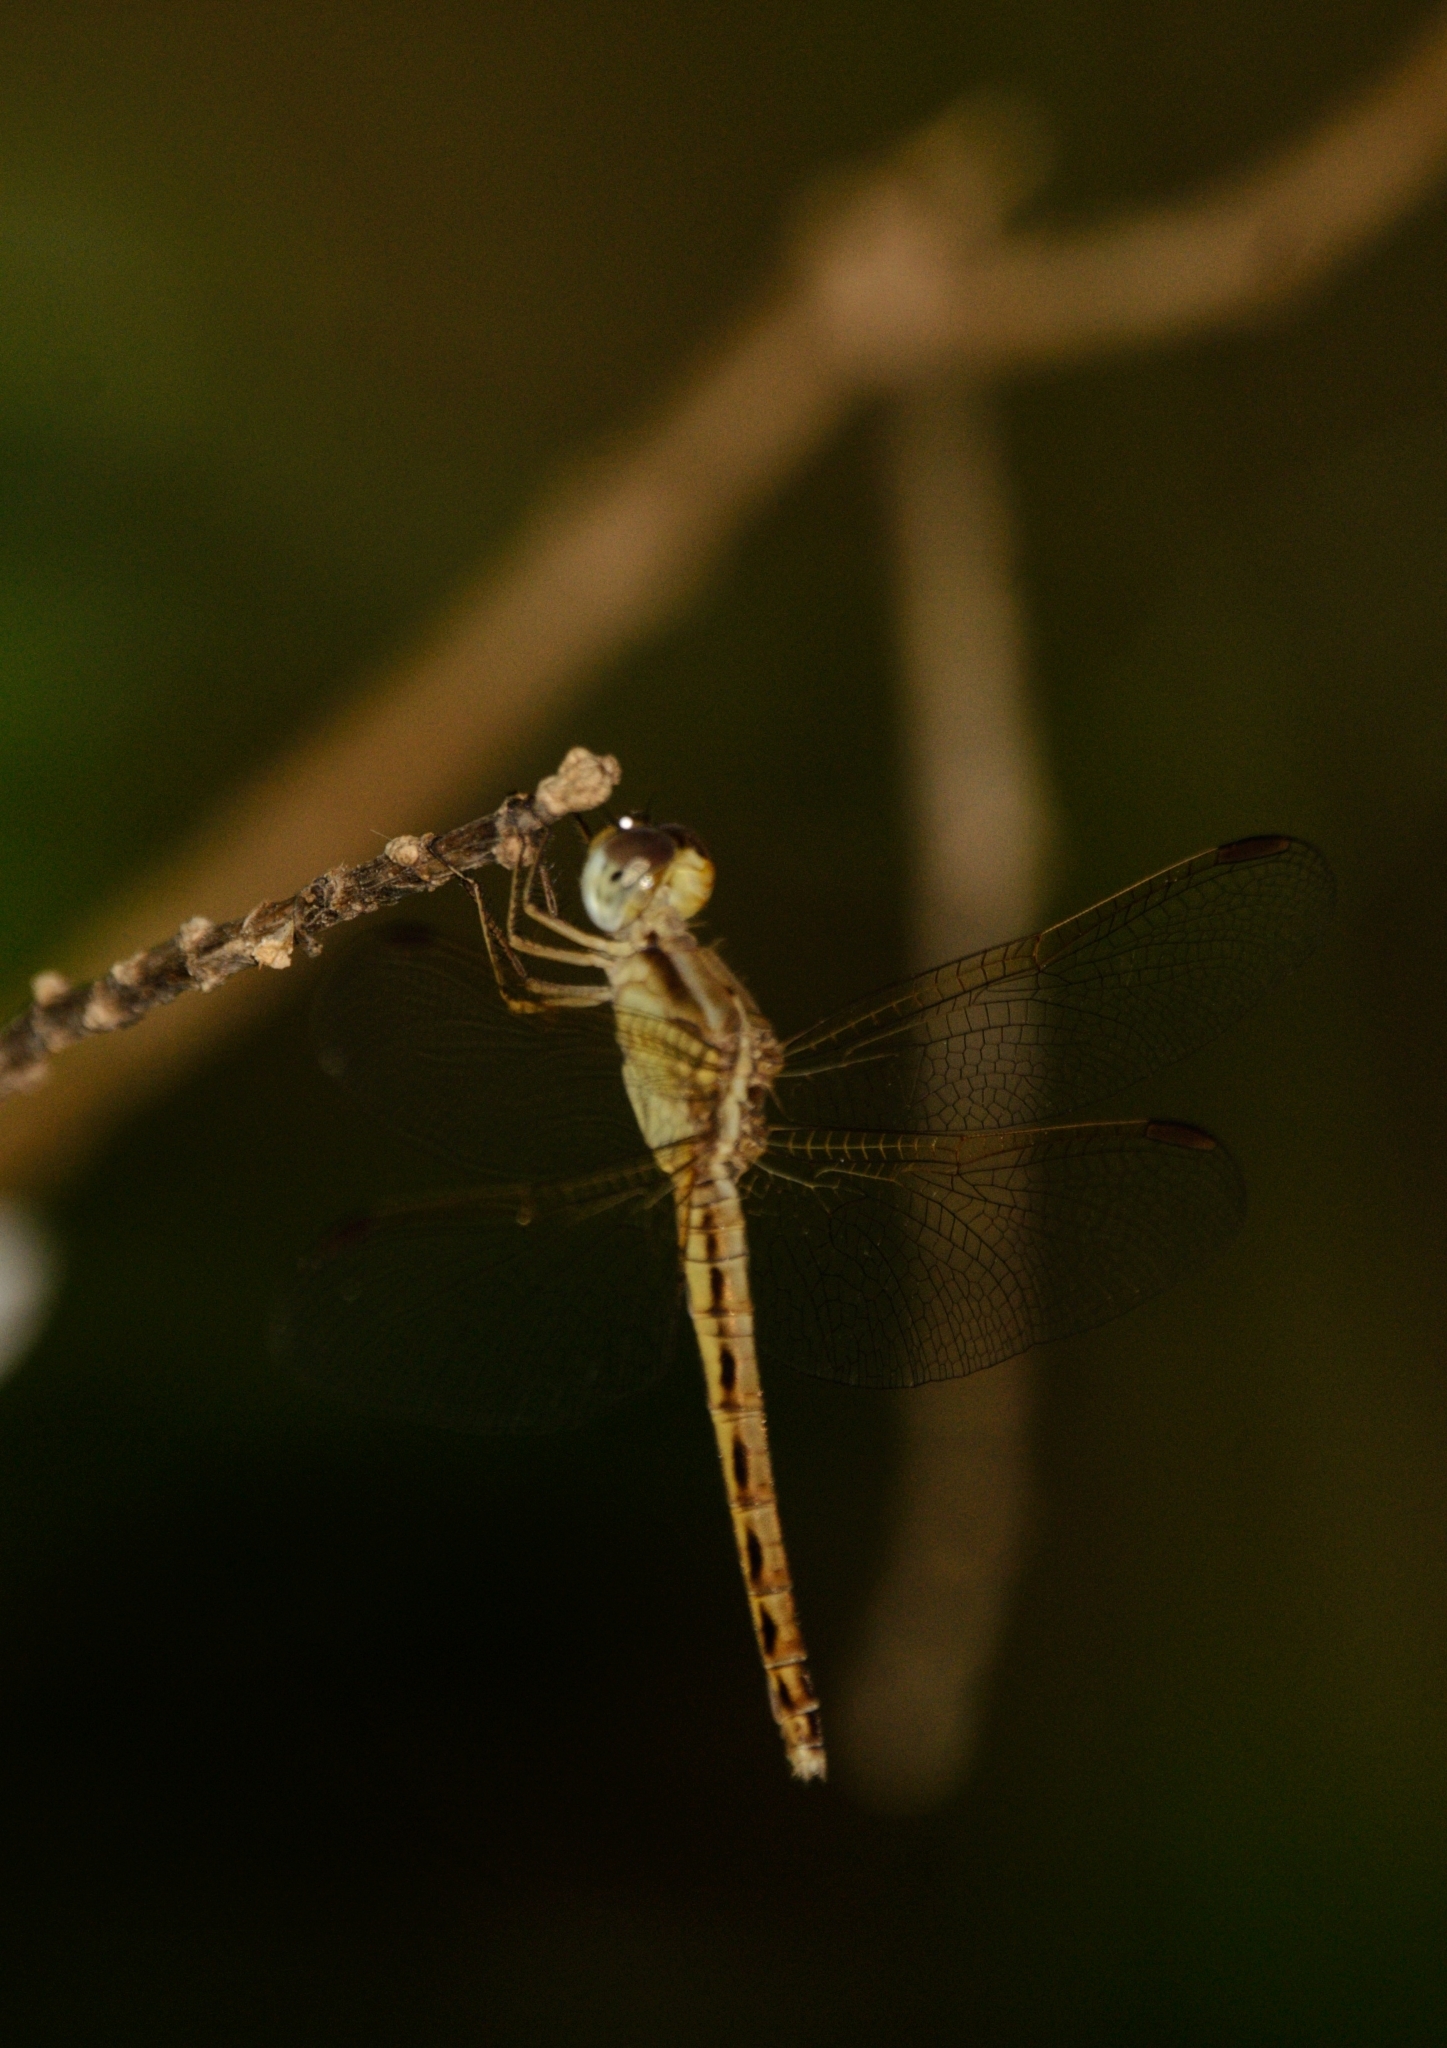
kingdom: Animalia
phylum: Arthropoda
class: Insecta
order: Odonata
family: Libellulidae
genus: Neurothemis
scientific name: Neurothemis intermedia
